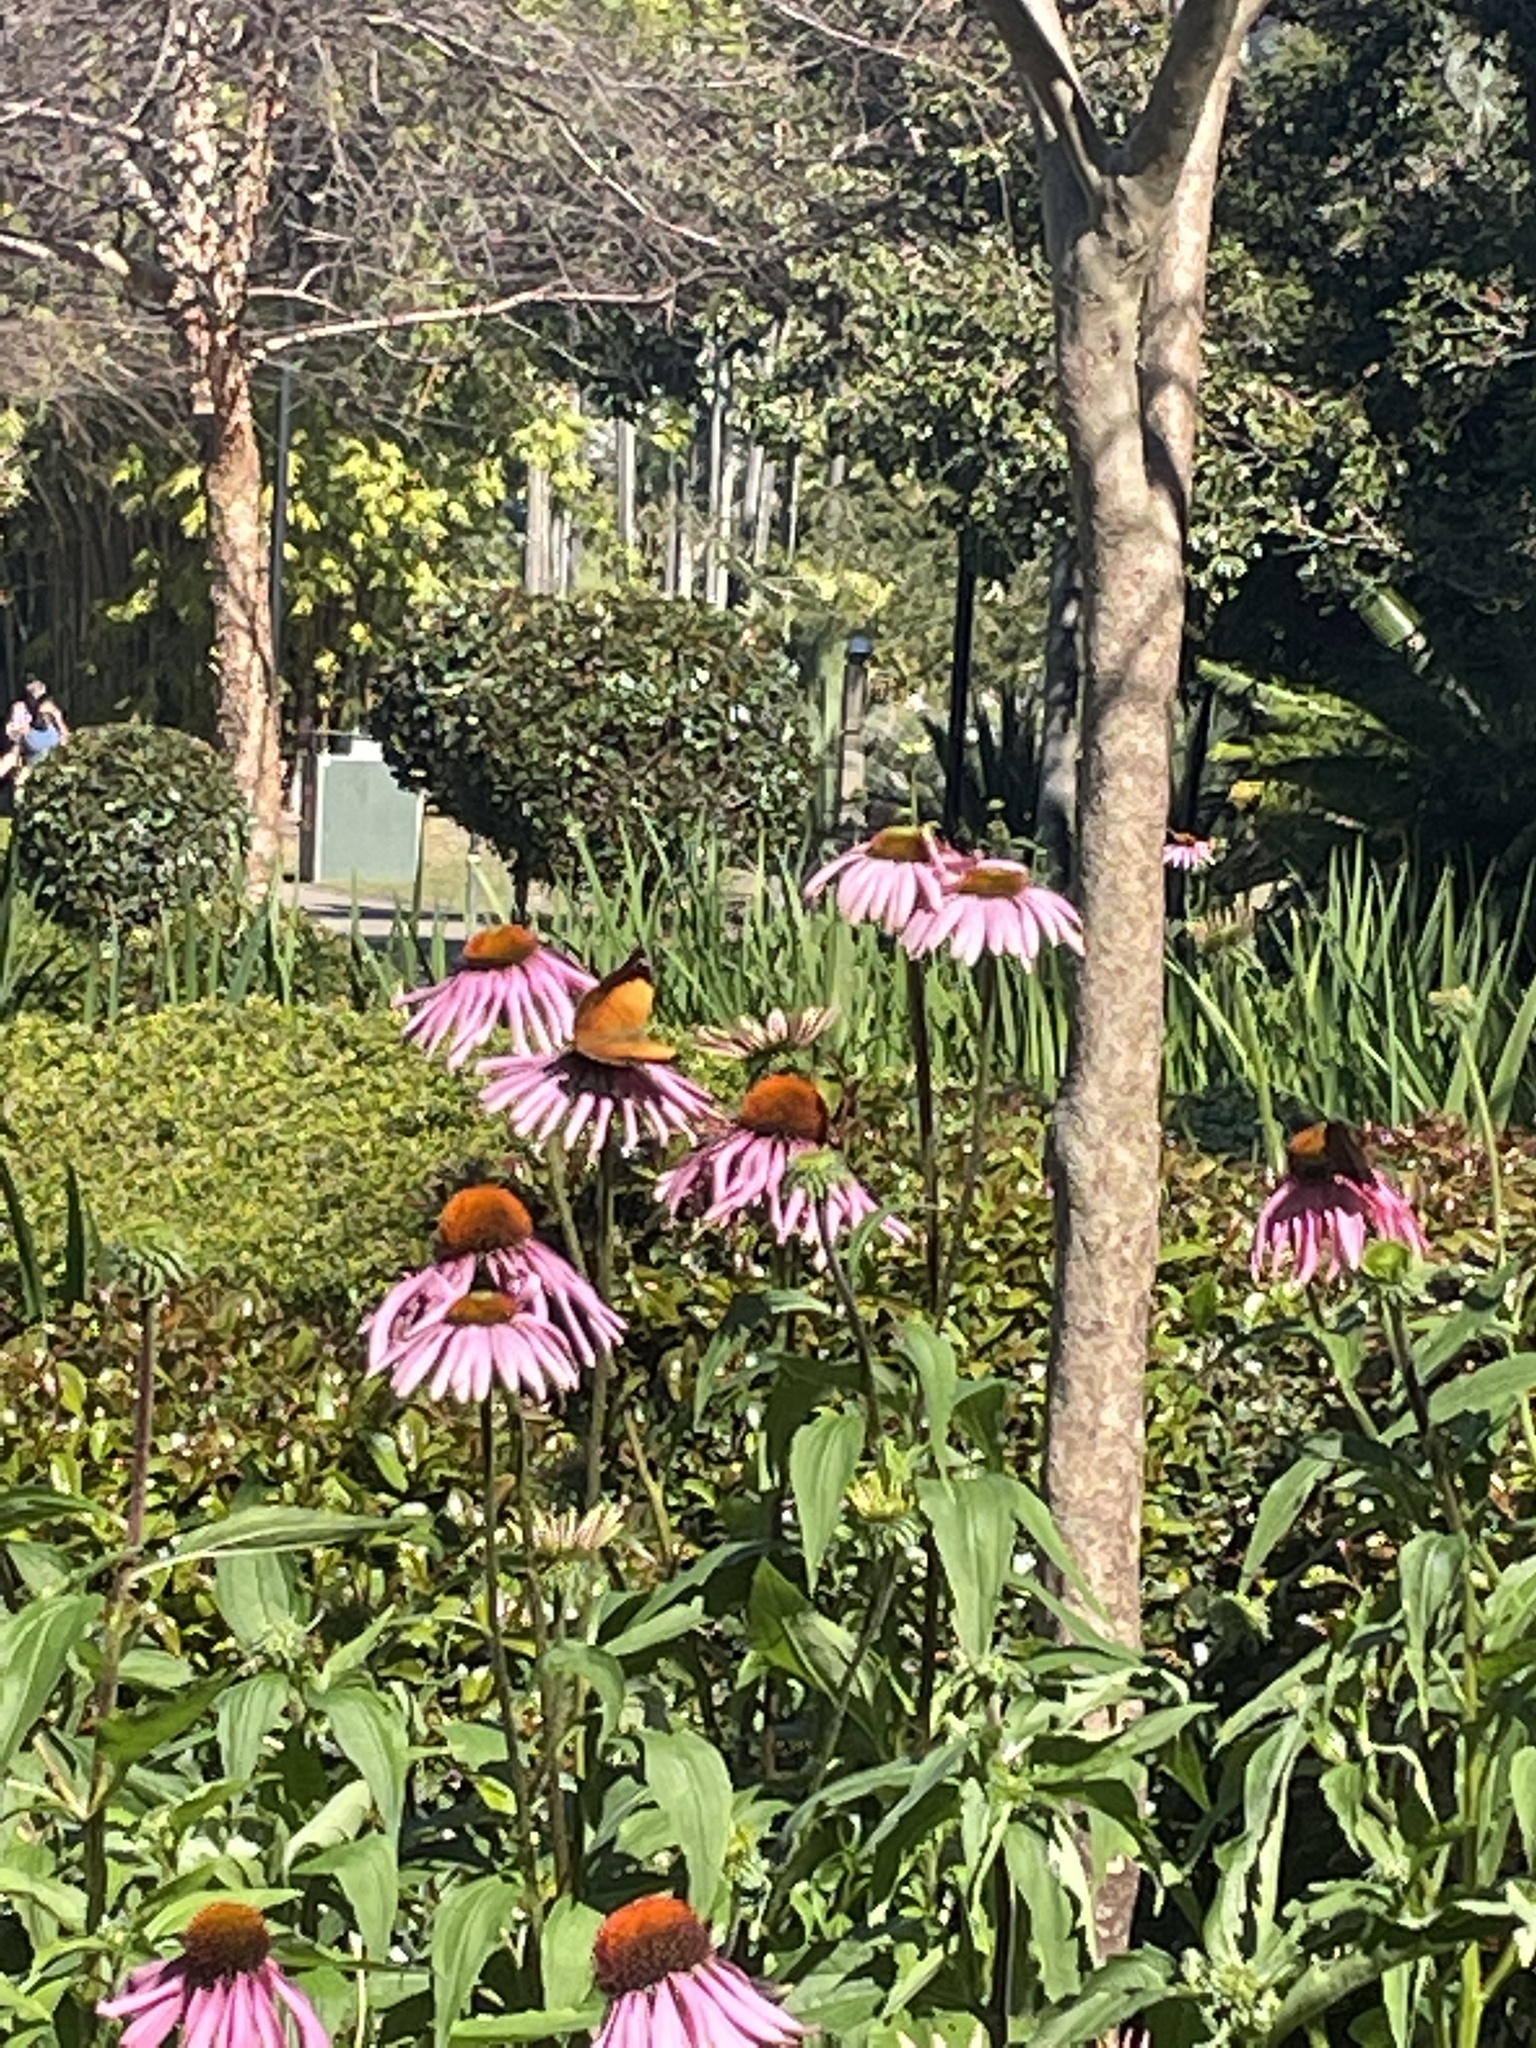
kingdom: Animalia
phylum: Arthropoda
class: Insecta
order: Lepidoptera
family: Nymphalidae
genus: Doleschallia
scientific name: Doleschallia bisaltide
